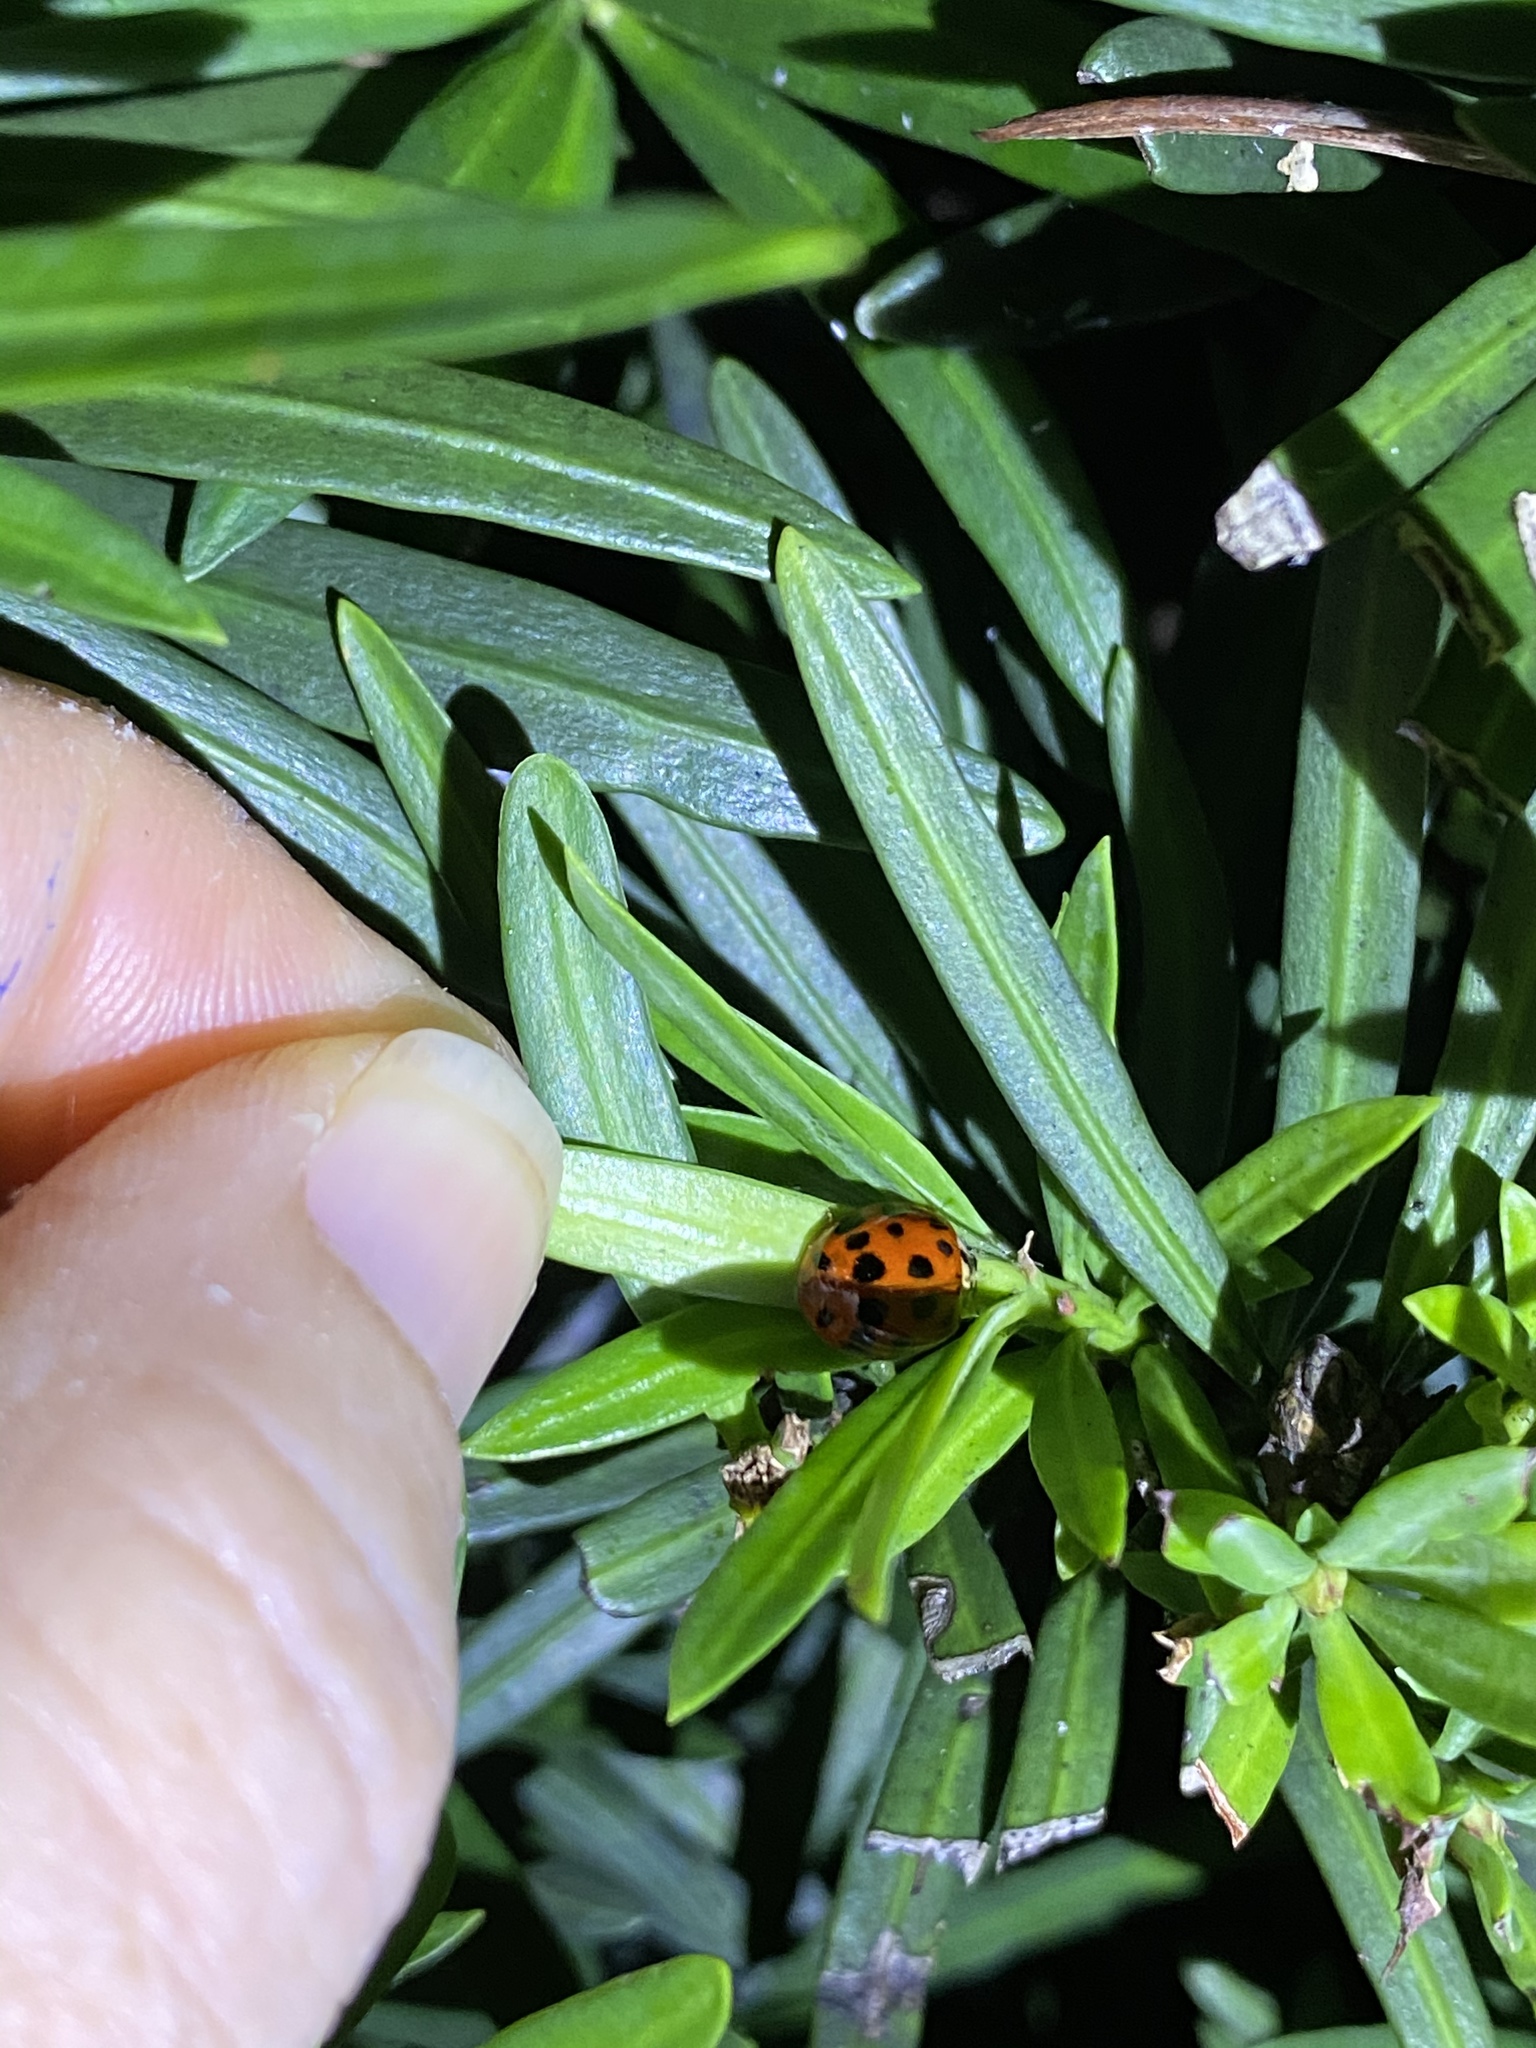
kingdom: Animalia
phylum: Arthropoda
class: Insecta
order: Coleoptera
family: Coccinellidae
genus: Harmonia
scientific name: Harmonia axyridis
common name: Harlequin ladybird
